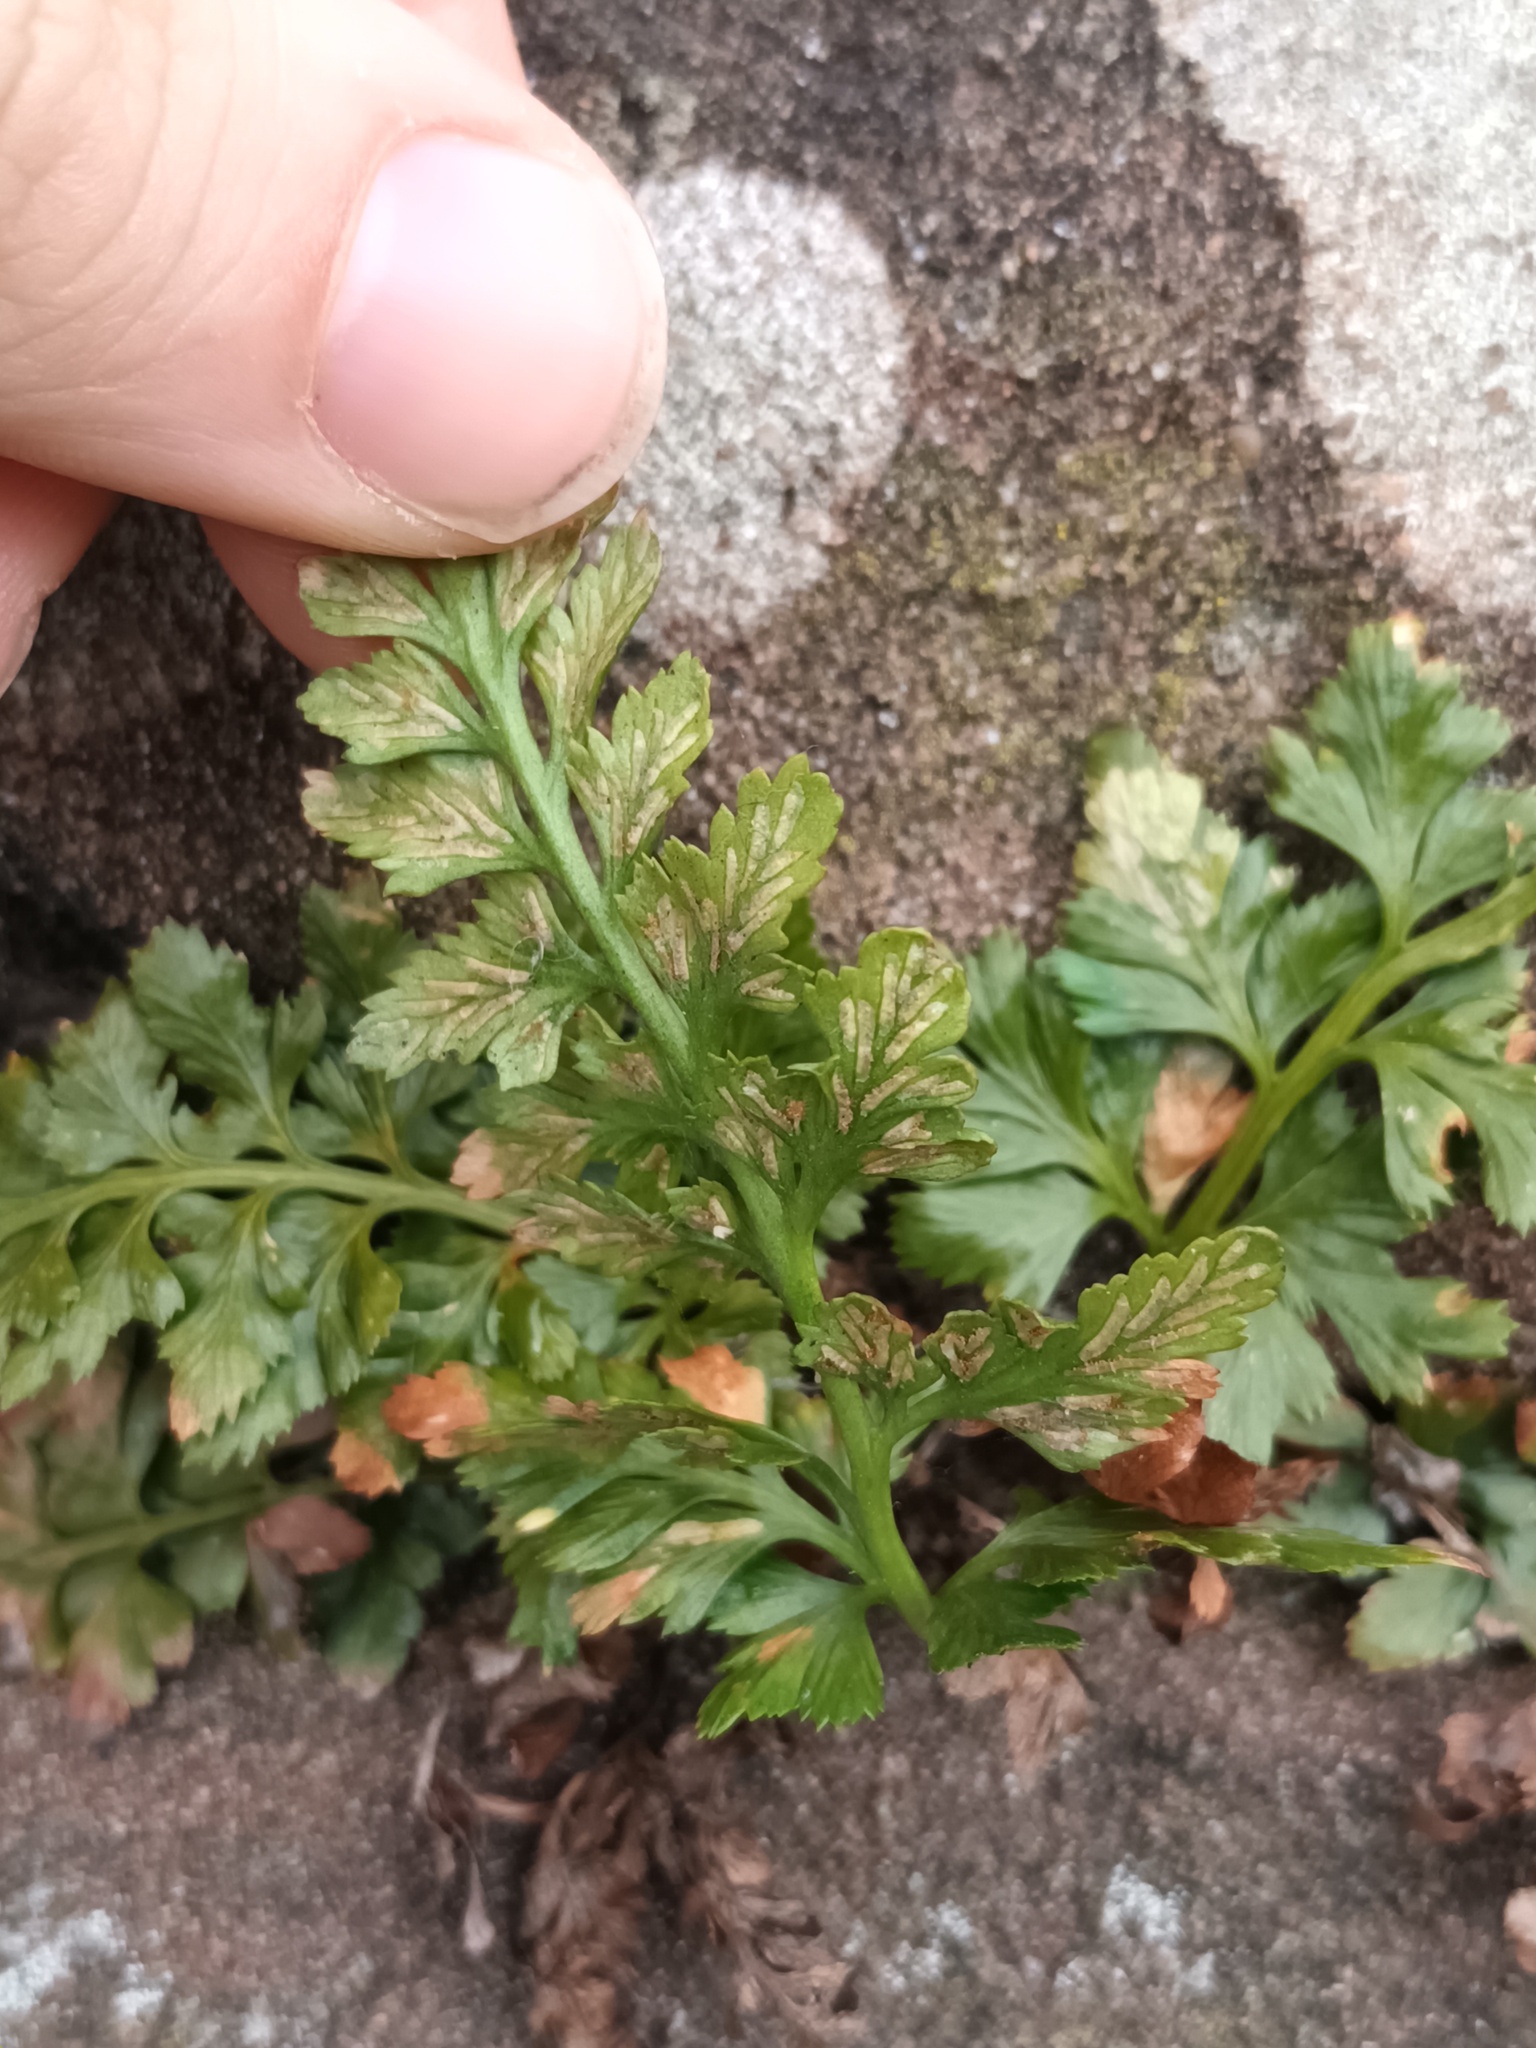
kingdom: Plantae
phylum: Tracheophyta
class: Polypodiopsida
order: Polypodiales
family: Aspleniaceae
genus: Asplenium
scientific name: Asplenium adiantum-nigrum
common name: Black spleenwort
